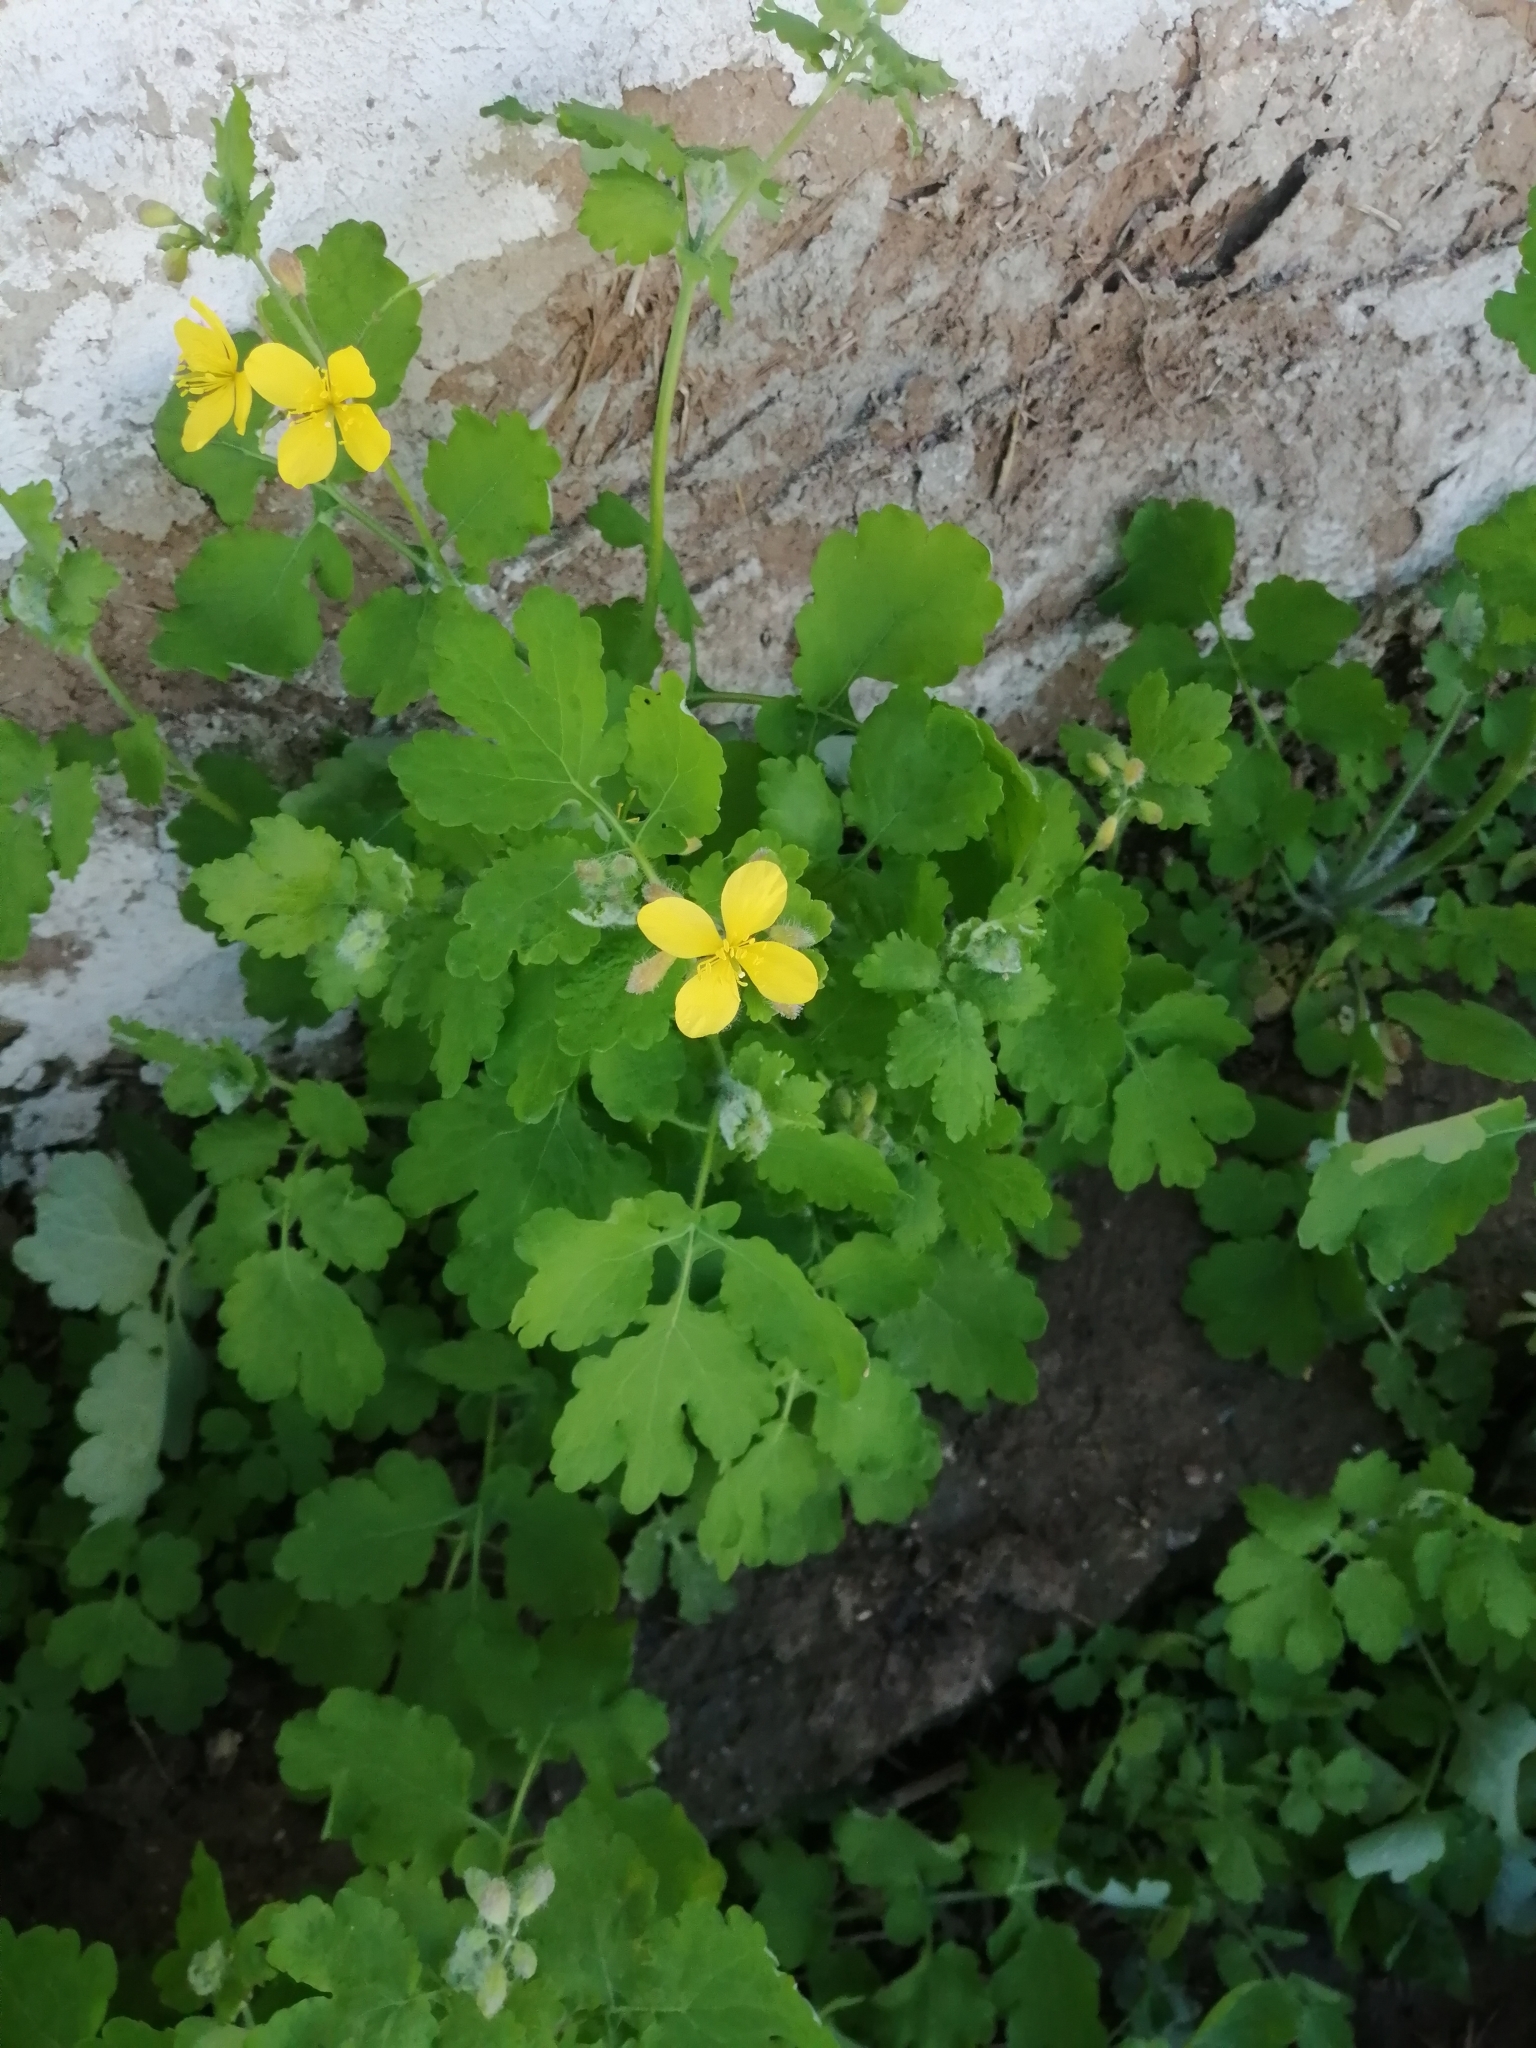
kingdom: Plantae
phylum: Tracheophyta
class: Magnoliopsida
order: Ranunculales
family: Papaveraceae
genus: Chelidonium
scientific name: Chelidonium majus
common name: Greater celandine
